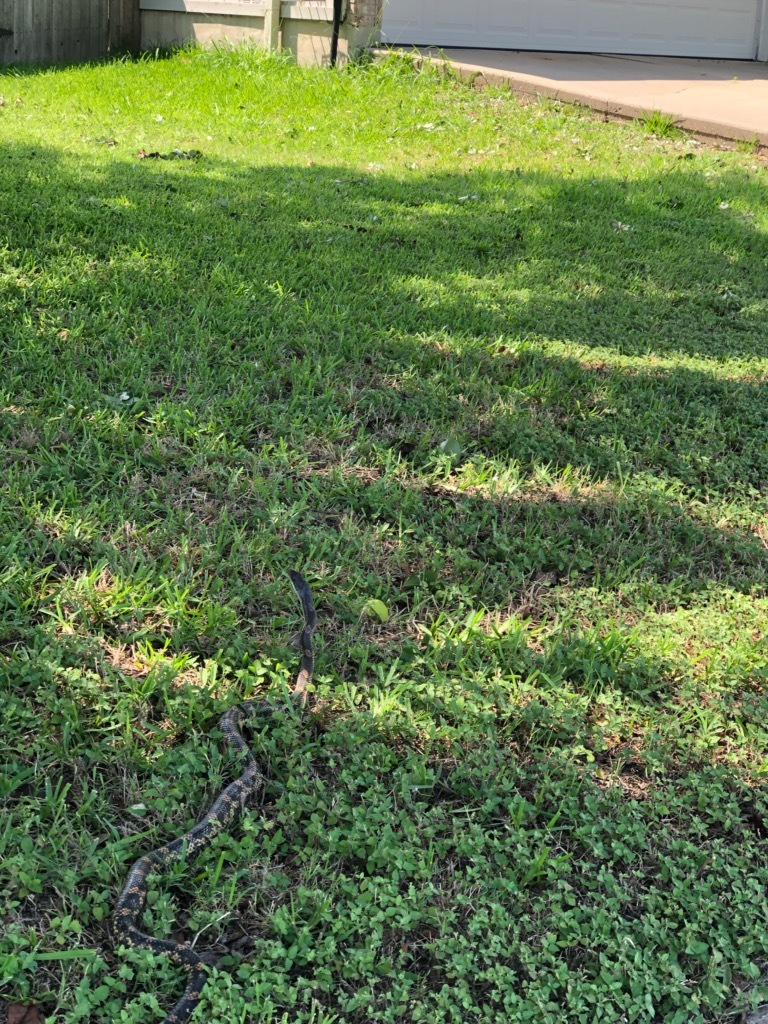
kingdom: Animalia
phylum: Chordata
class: Squamata
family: Colubridae
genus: Pantherophis
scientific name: Pantherophis obsoletus
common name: Black rat snake
